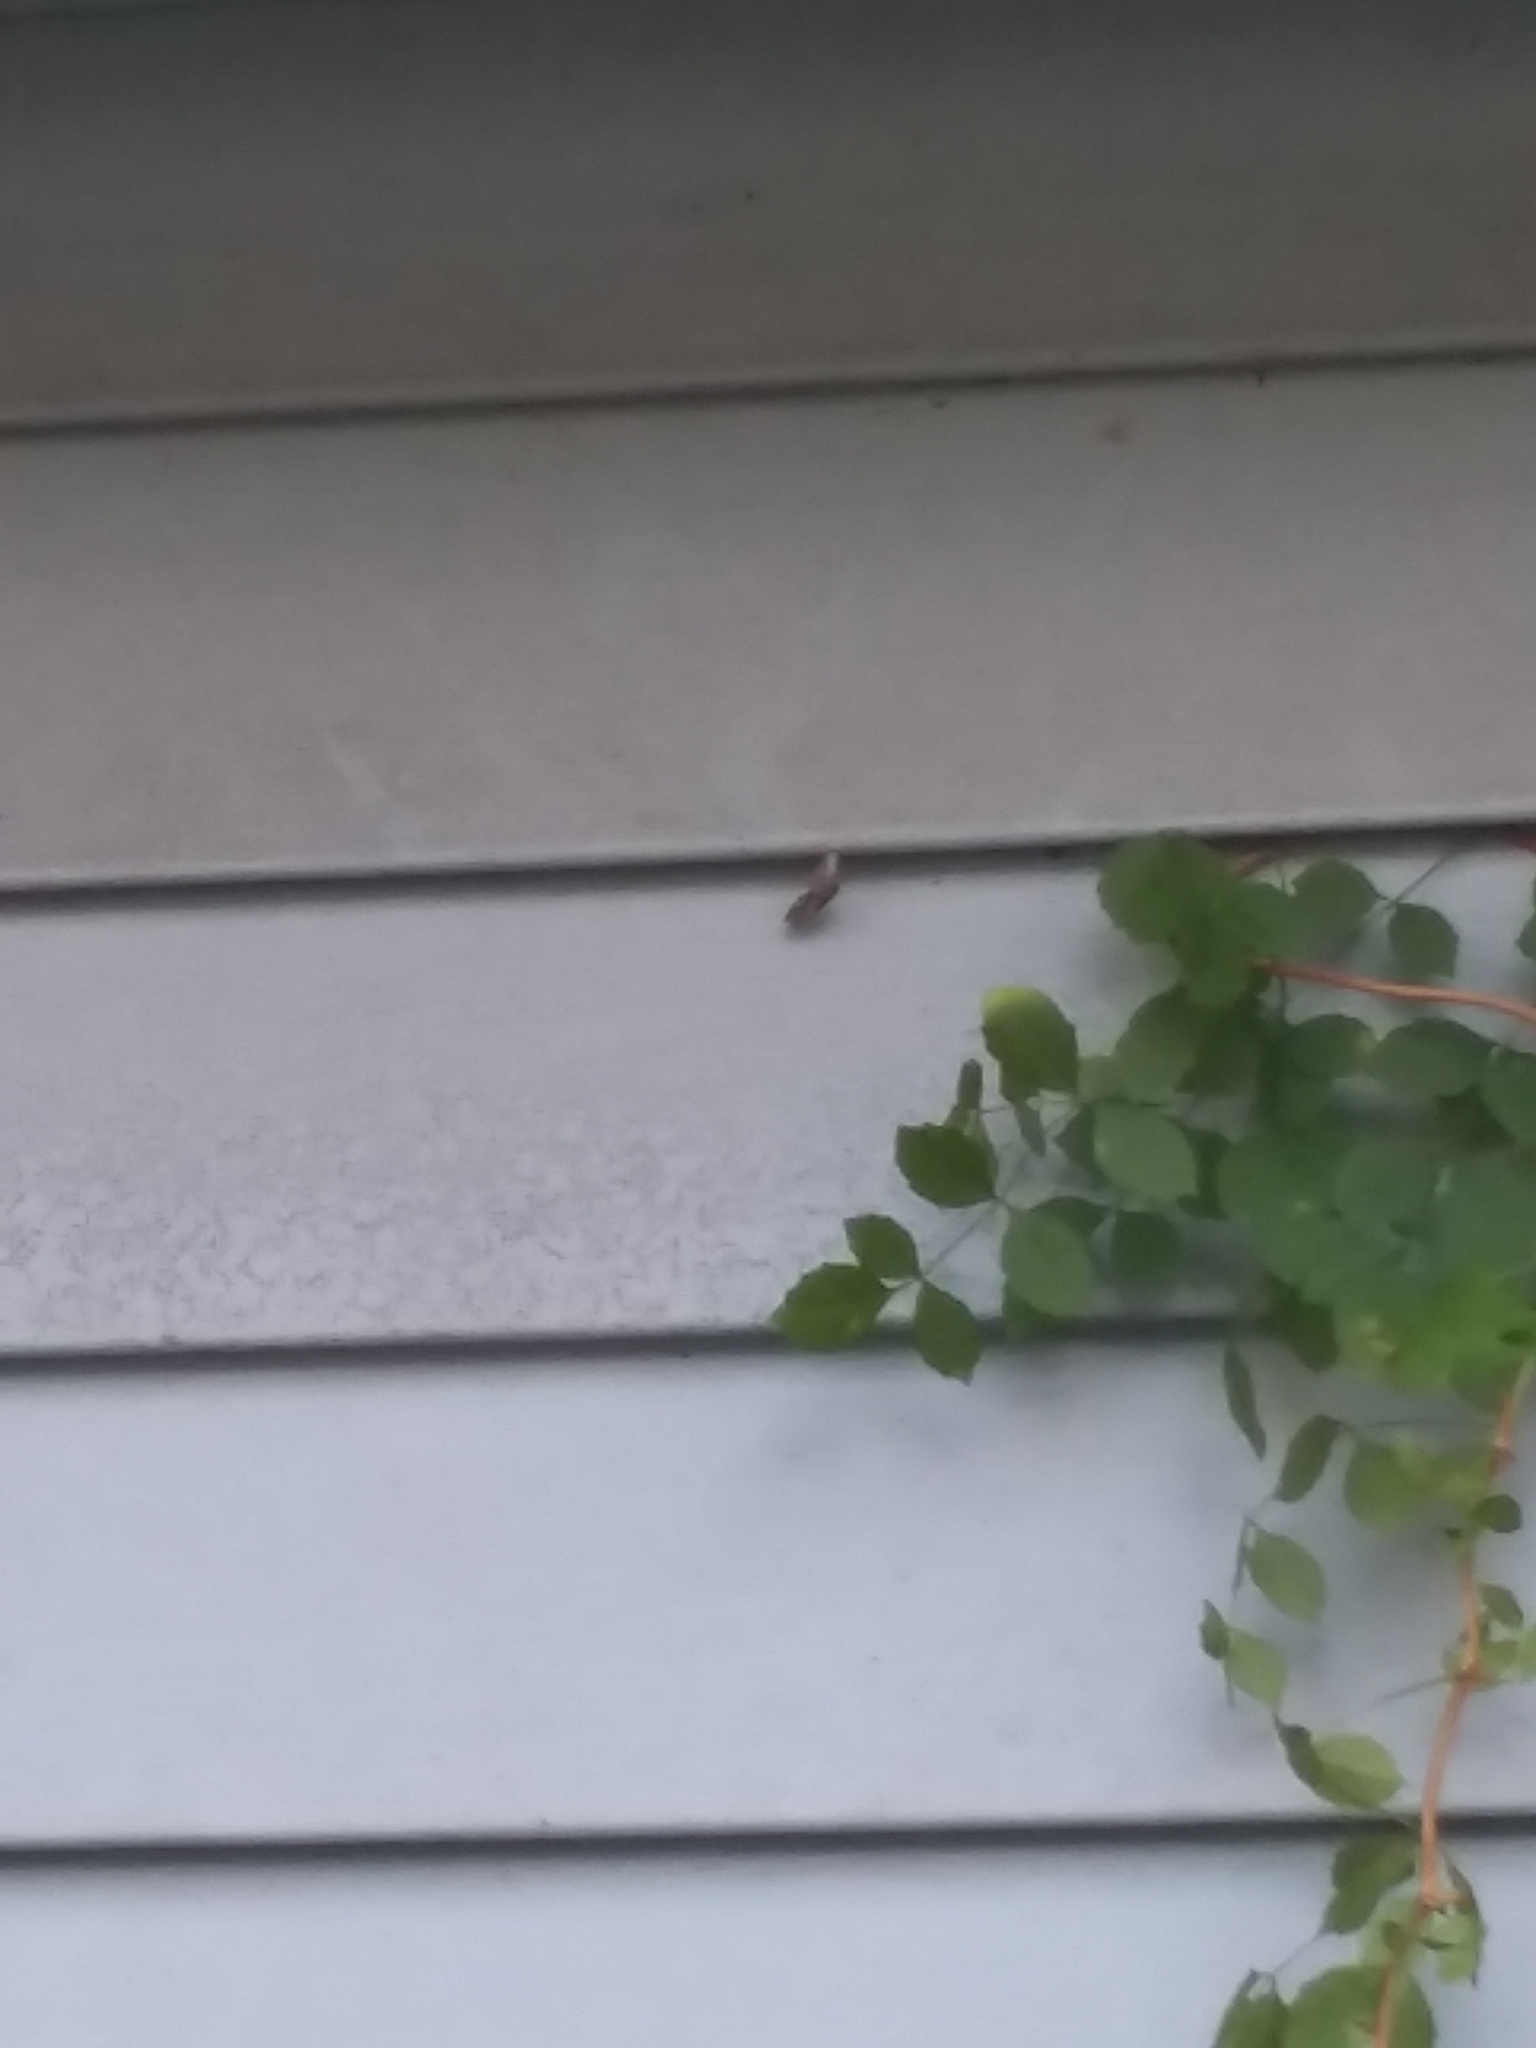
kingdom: Animalia
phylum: Arthropoda
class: Insecta
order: Lepidoptera
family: Nymphalidae
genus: Dione
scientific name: Dione vanillae
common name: Gulf fritillary
